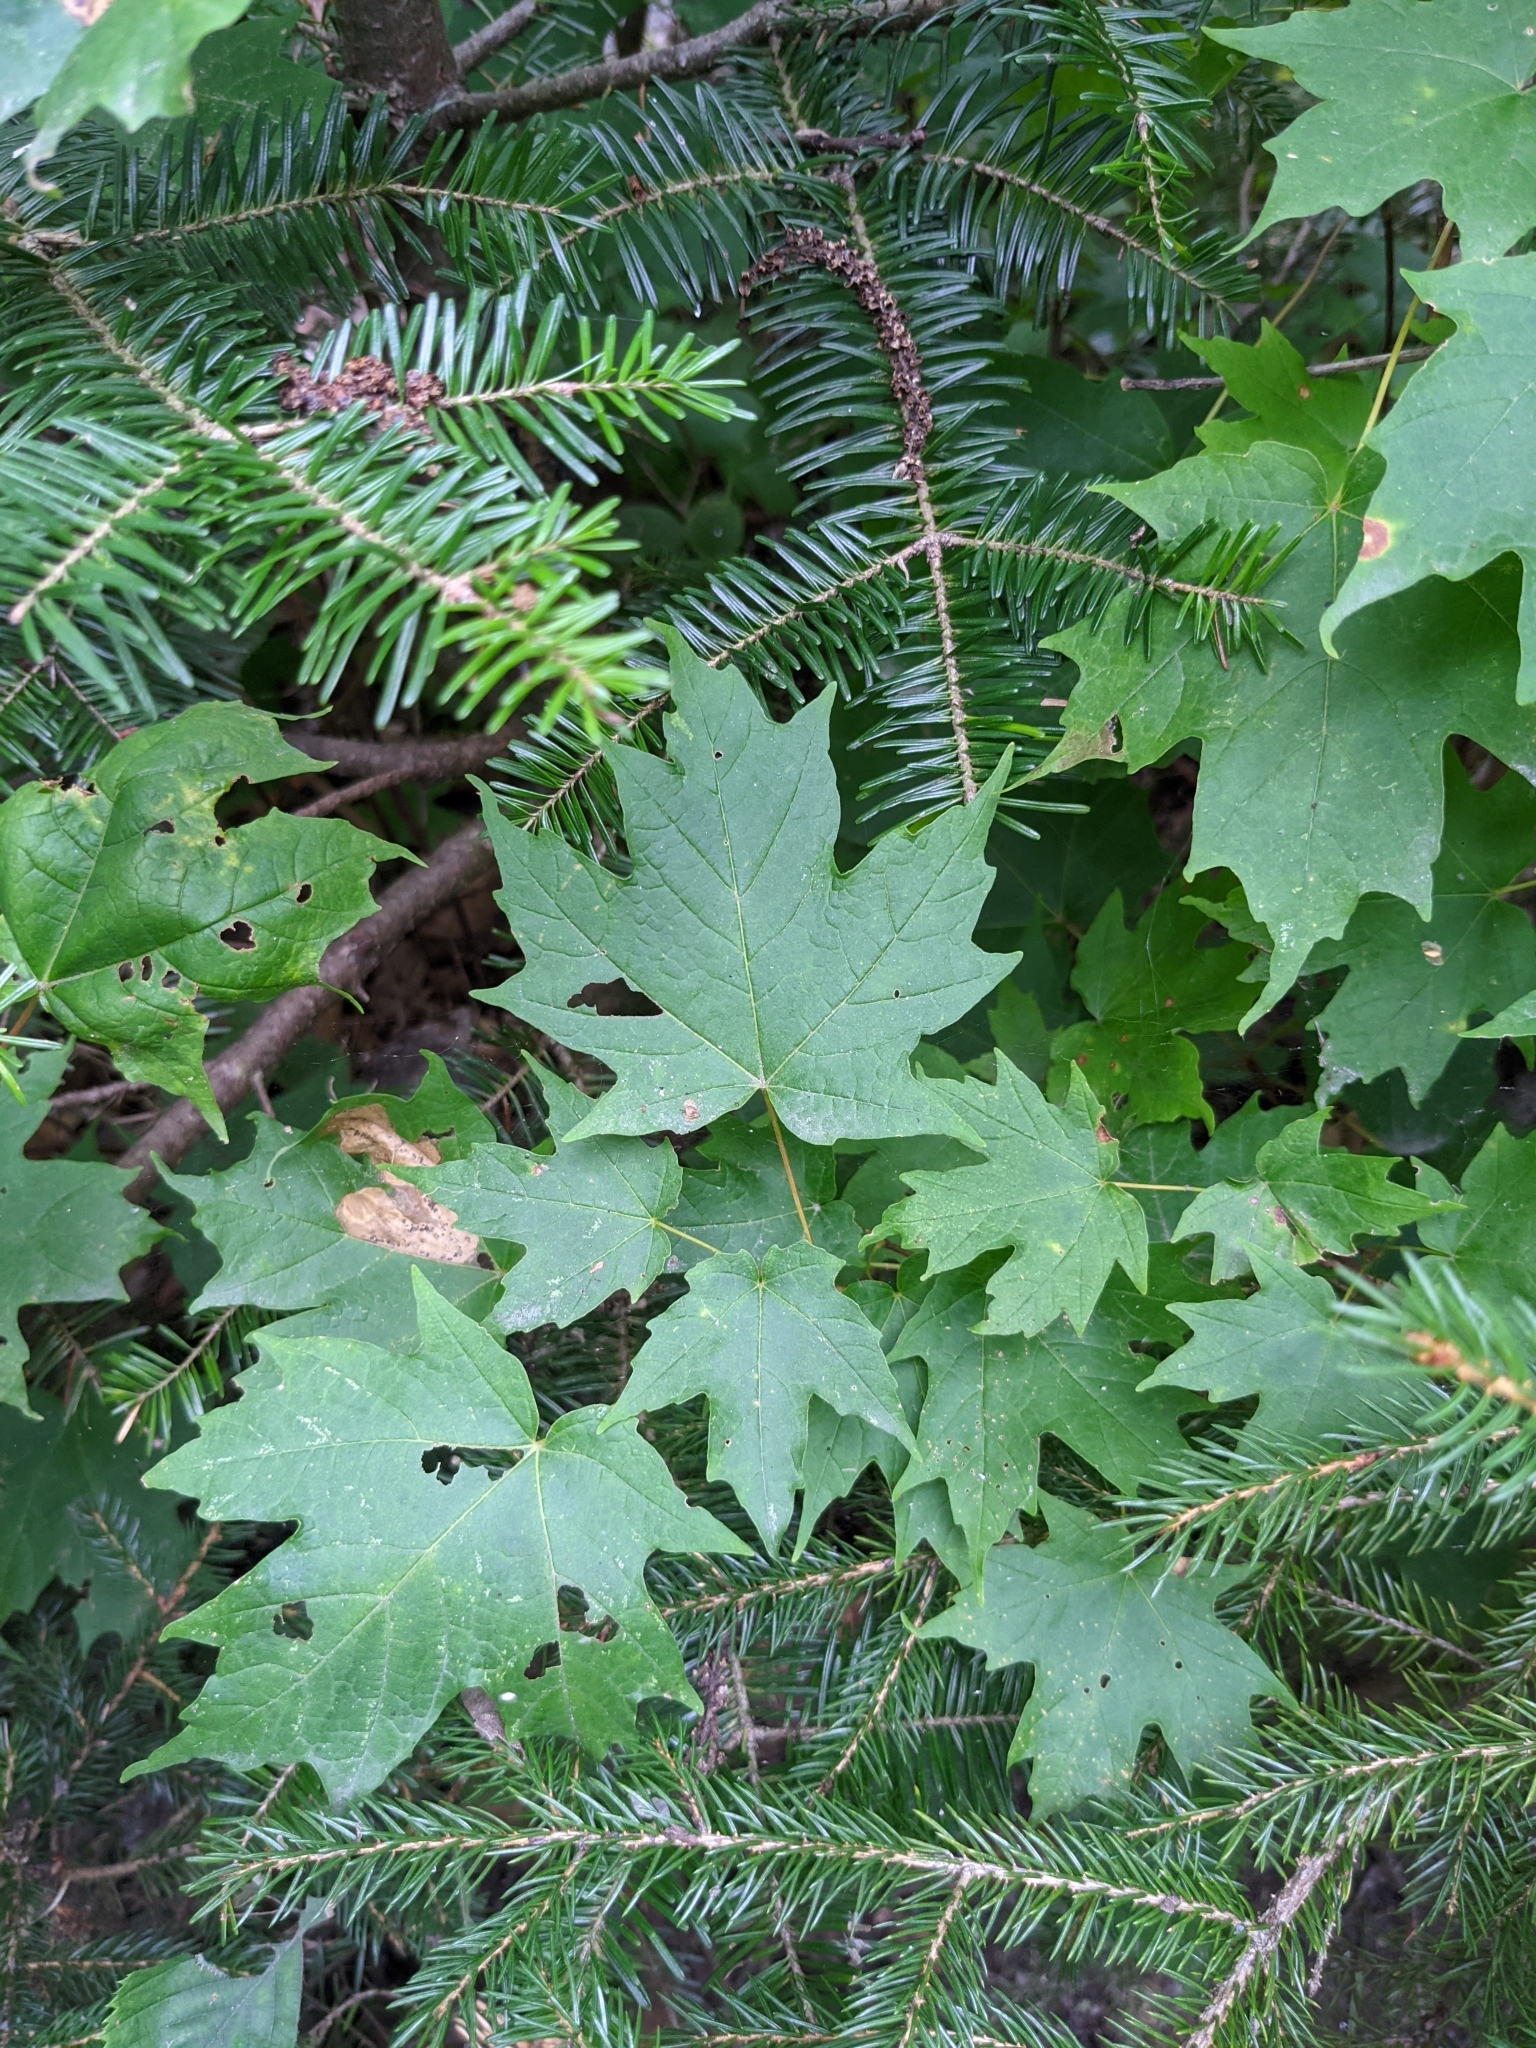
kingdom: Plantae
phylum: Tracheophyta
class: Magnoliopsida
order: Sapindales
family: Sapindaceae
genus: Acer
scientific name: Acer saccharum
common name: Sugar maple
